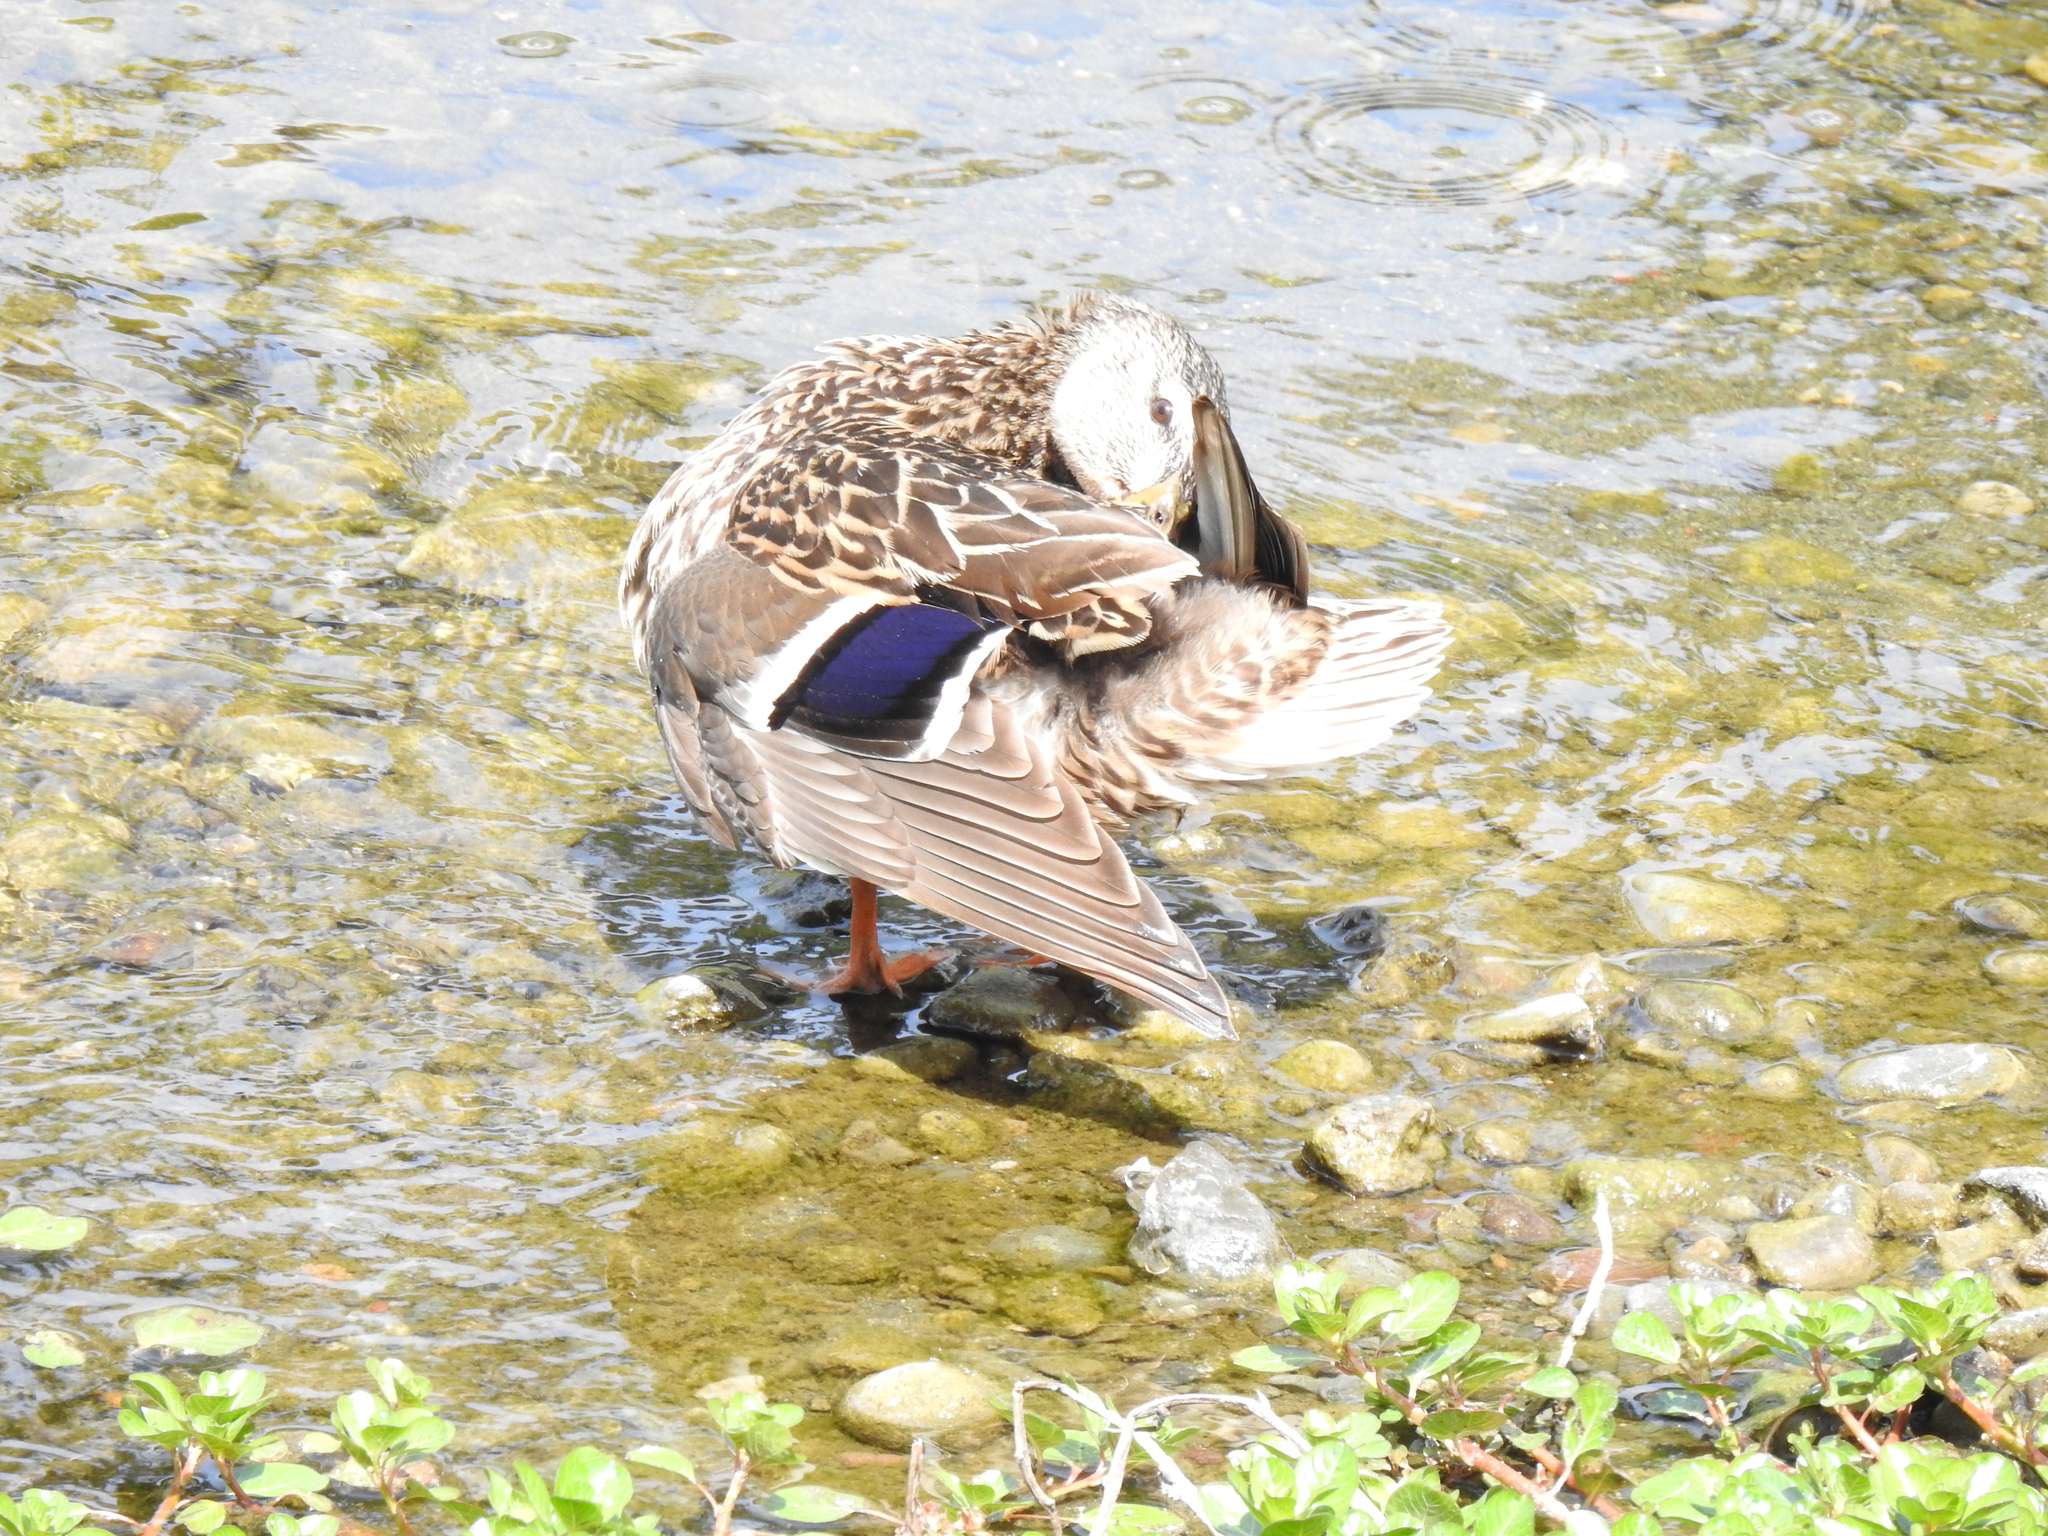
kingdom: Animalia
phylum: Chordata
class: Aves
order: Anseriformes
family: Anatidae
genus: Anas
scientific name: Anas platyrhynchos
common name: Mallard
